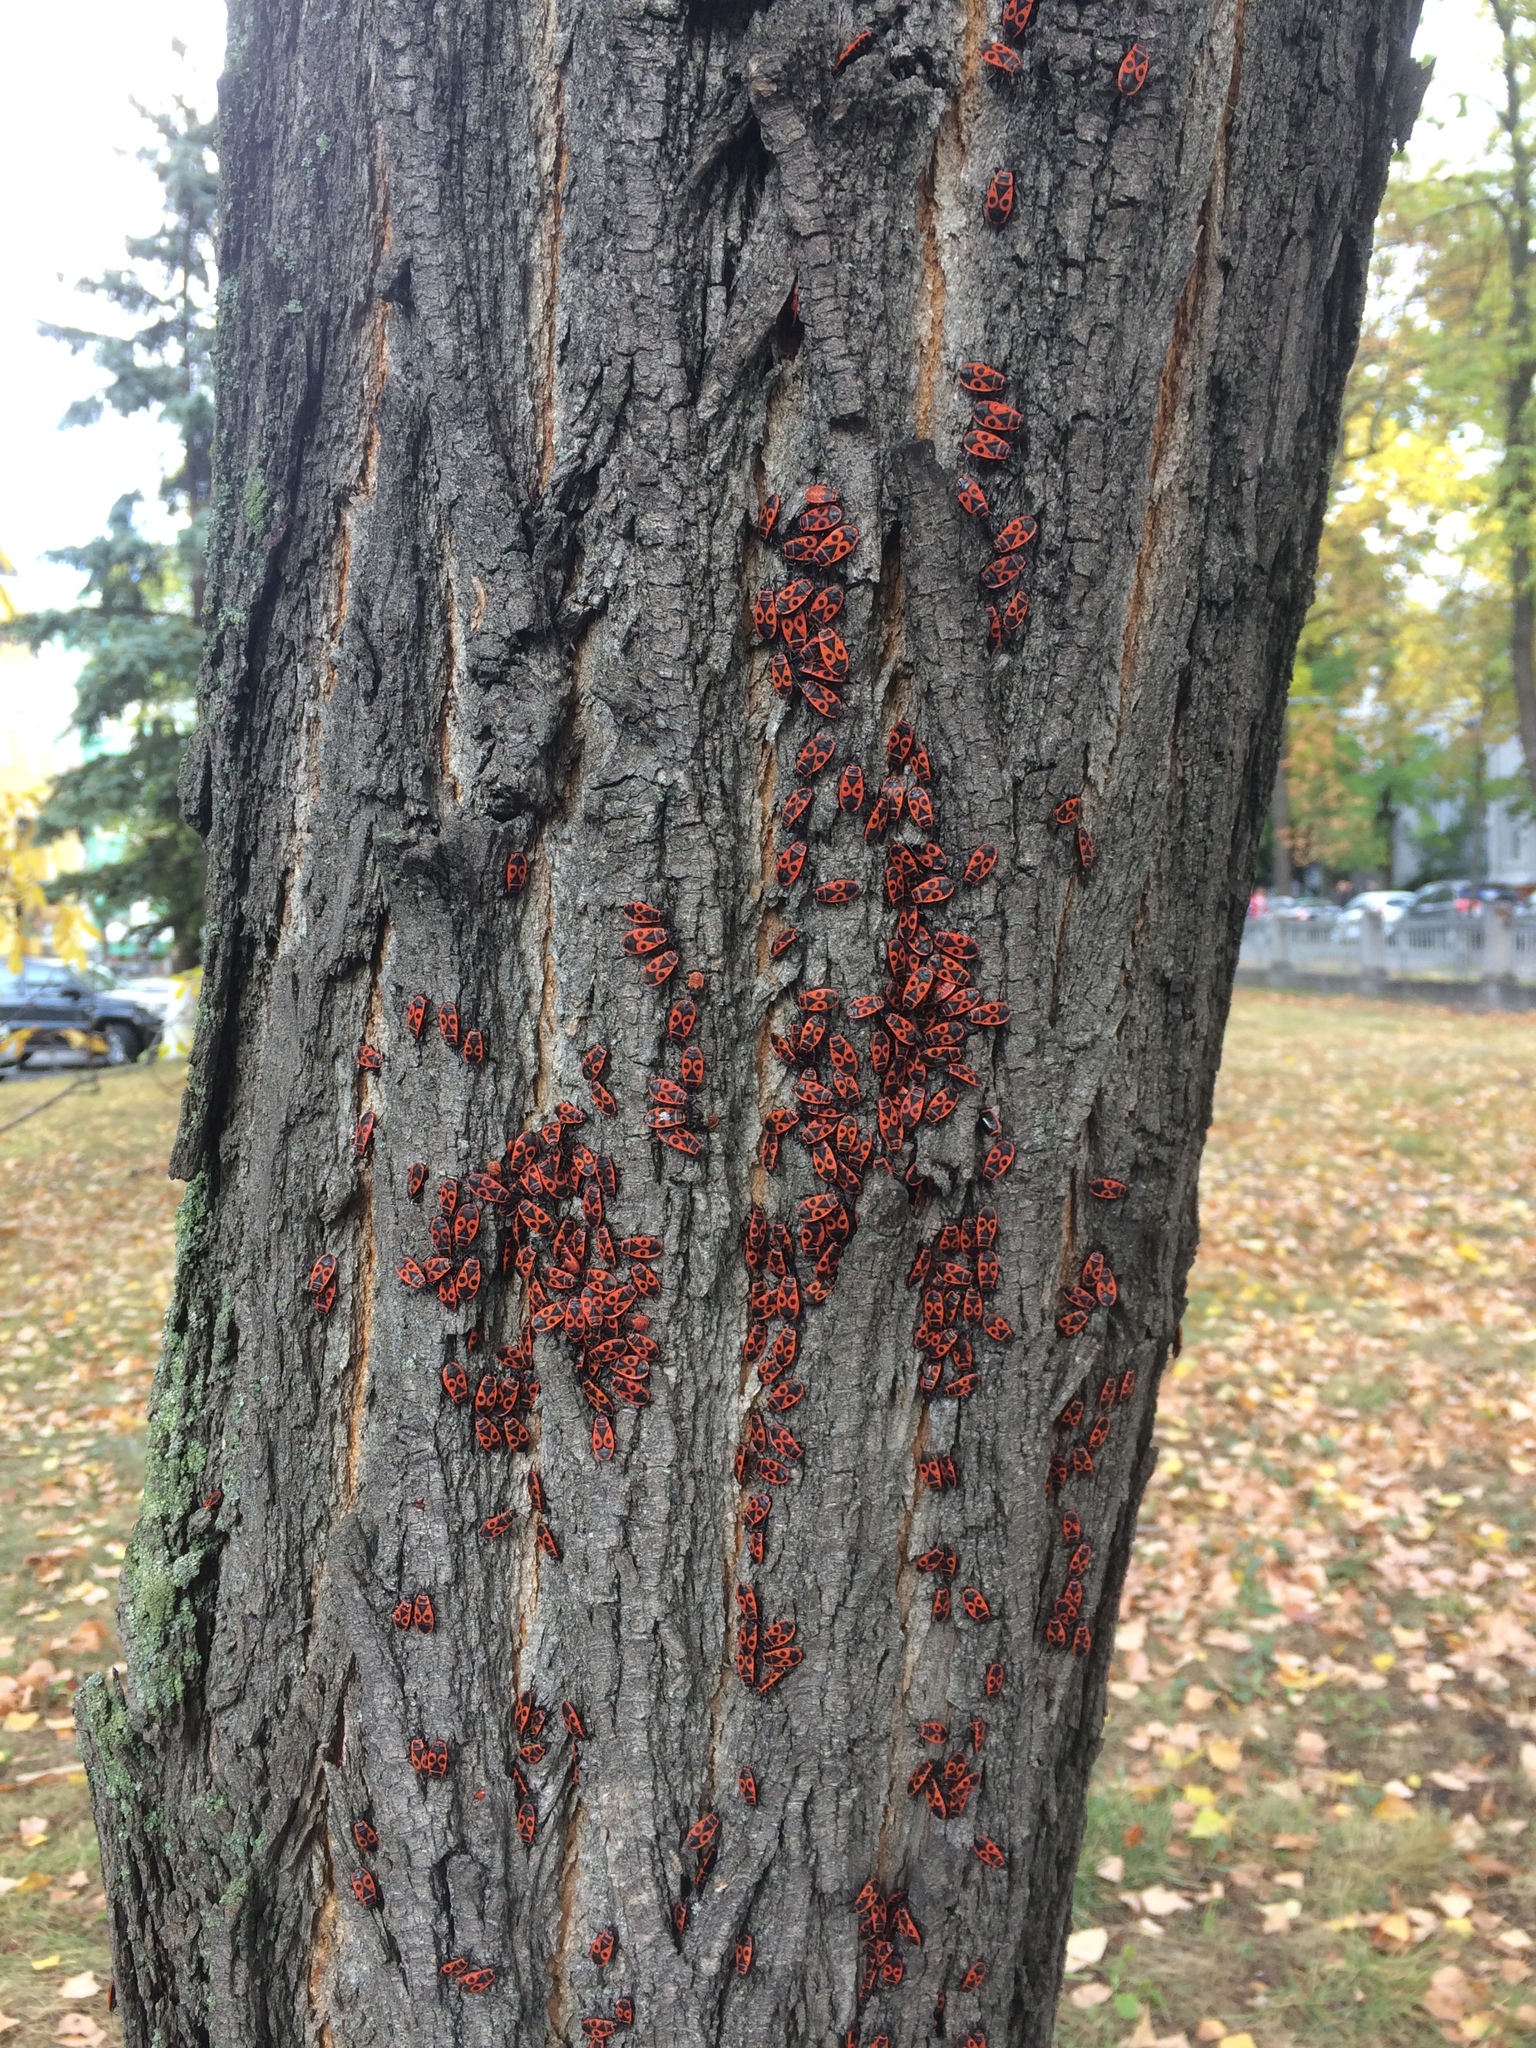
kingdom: Animalia
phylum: Arthropoda
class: Insecta
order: Hemiptera
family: Pyrrhocoridae
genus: Pyrrhocoris
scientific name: Pyrrhocoris apterus
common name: Firebug
